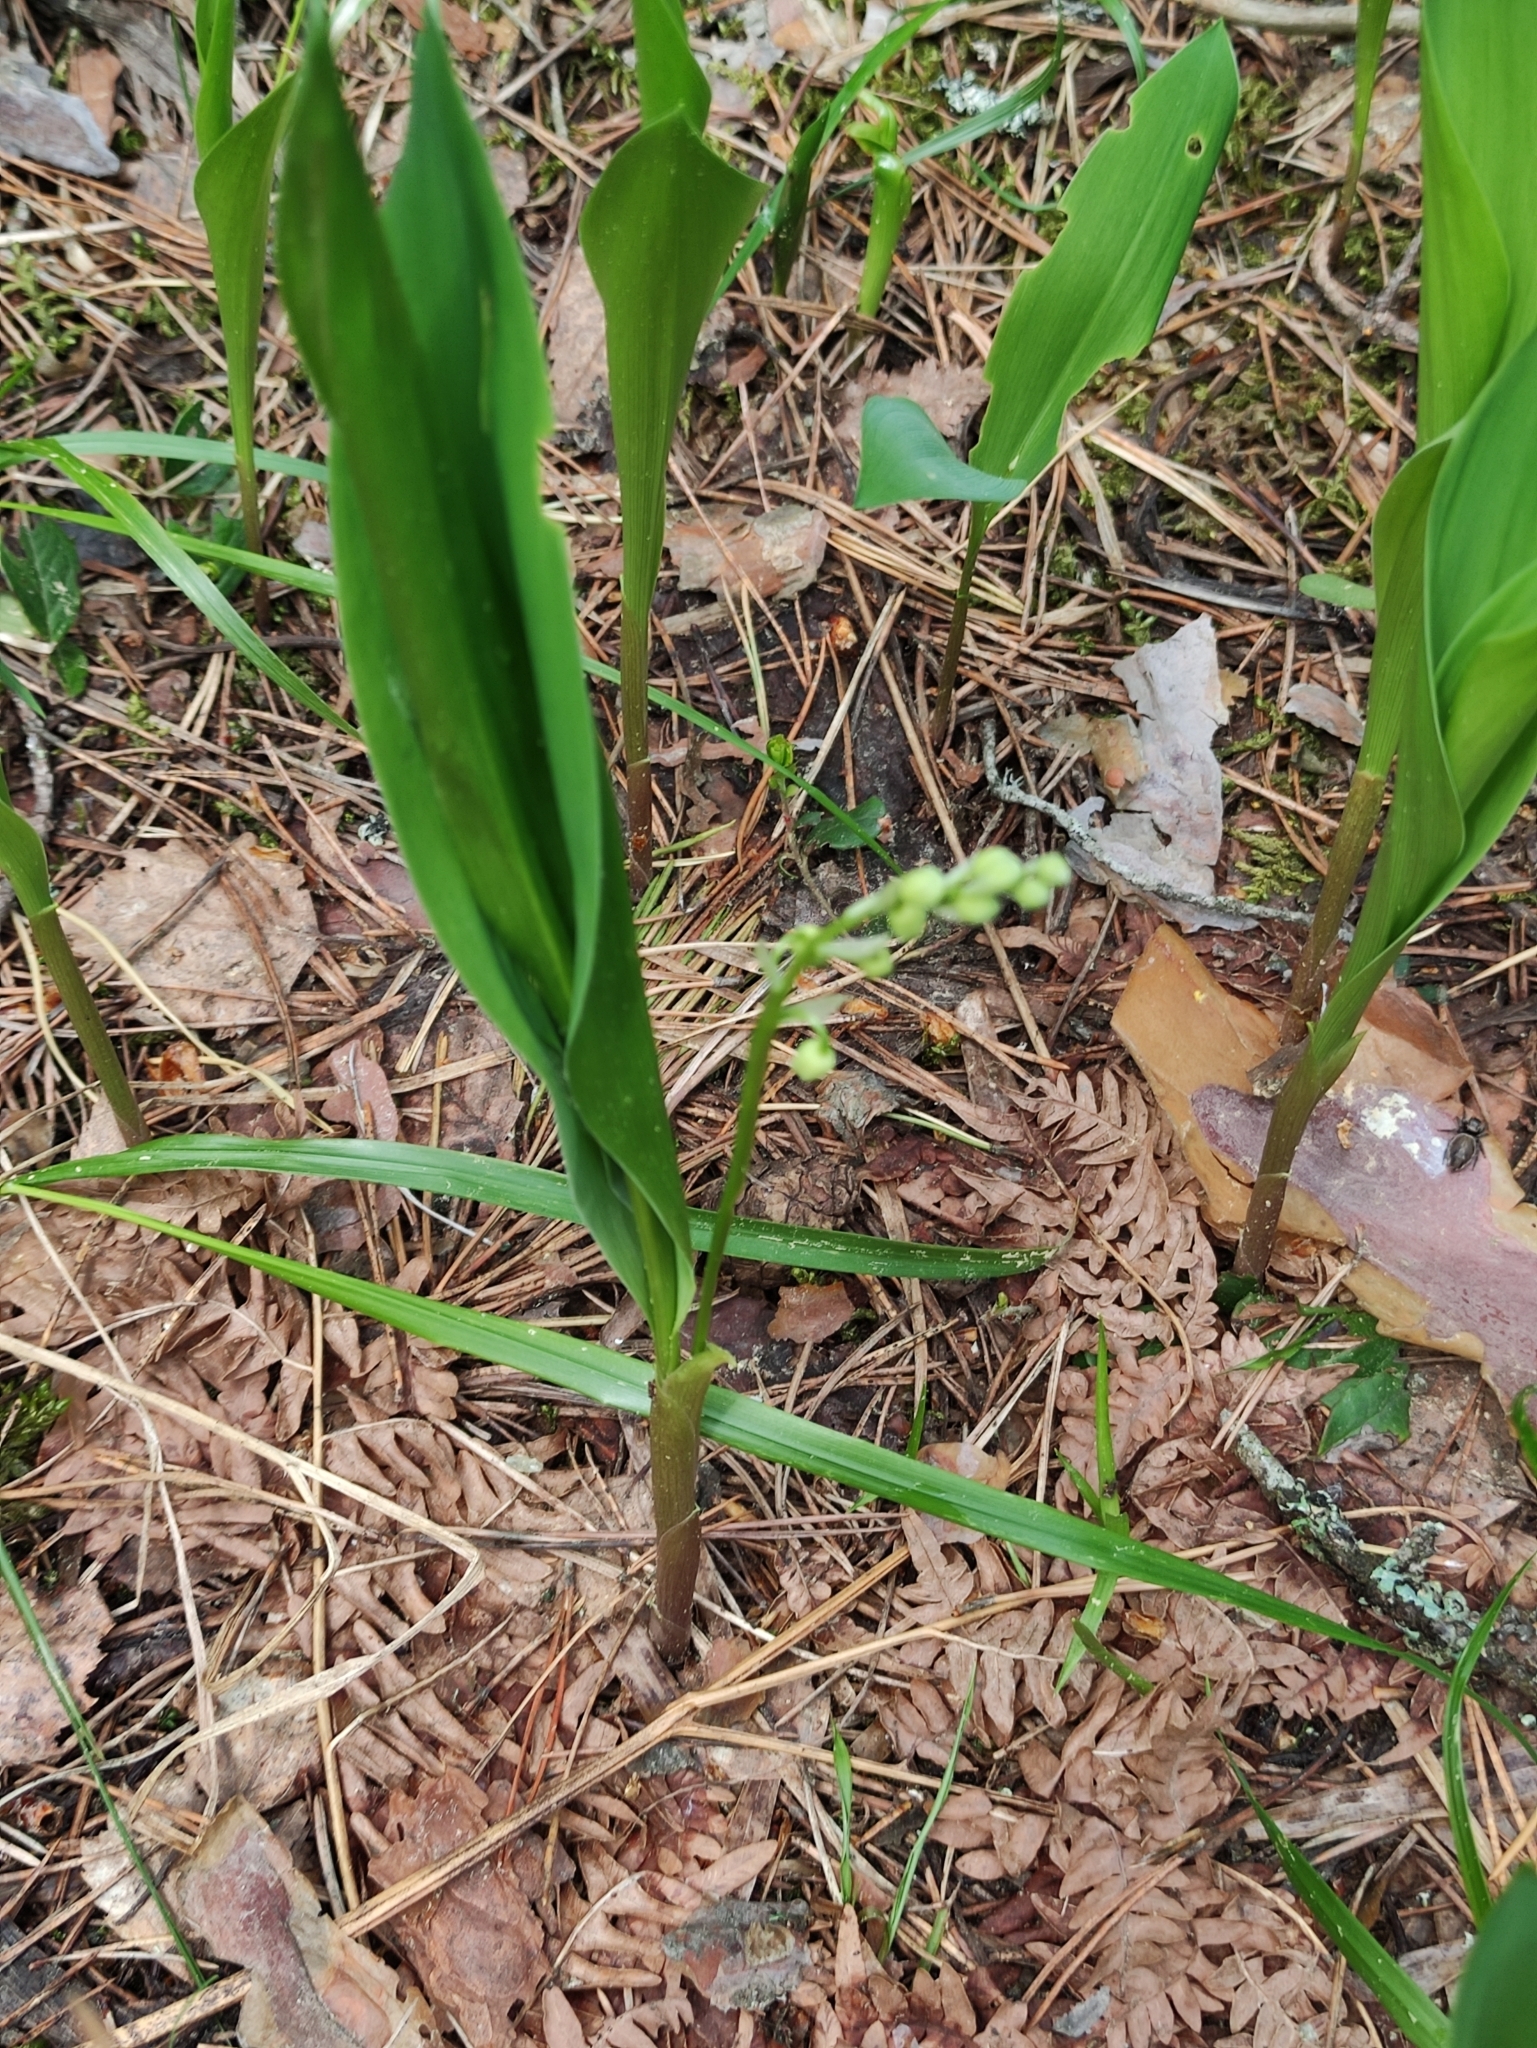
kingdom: Plantae
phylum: Tracheophyta
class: Liliopsida
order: Asparagales
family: Asparagaceae
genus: Convallaria
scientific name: Convallaria majalis
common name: Lily-of-the-valley
